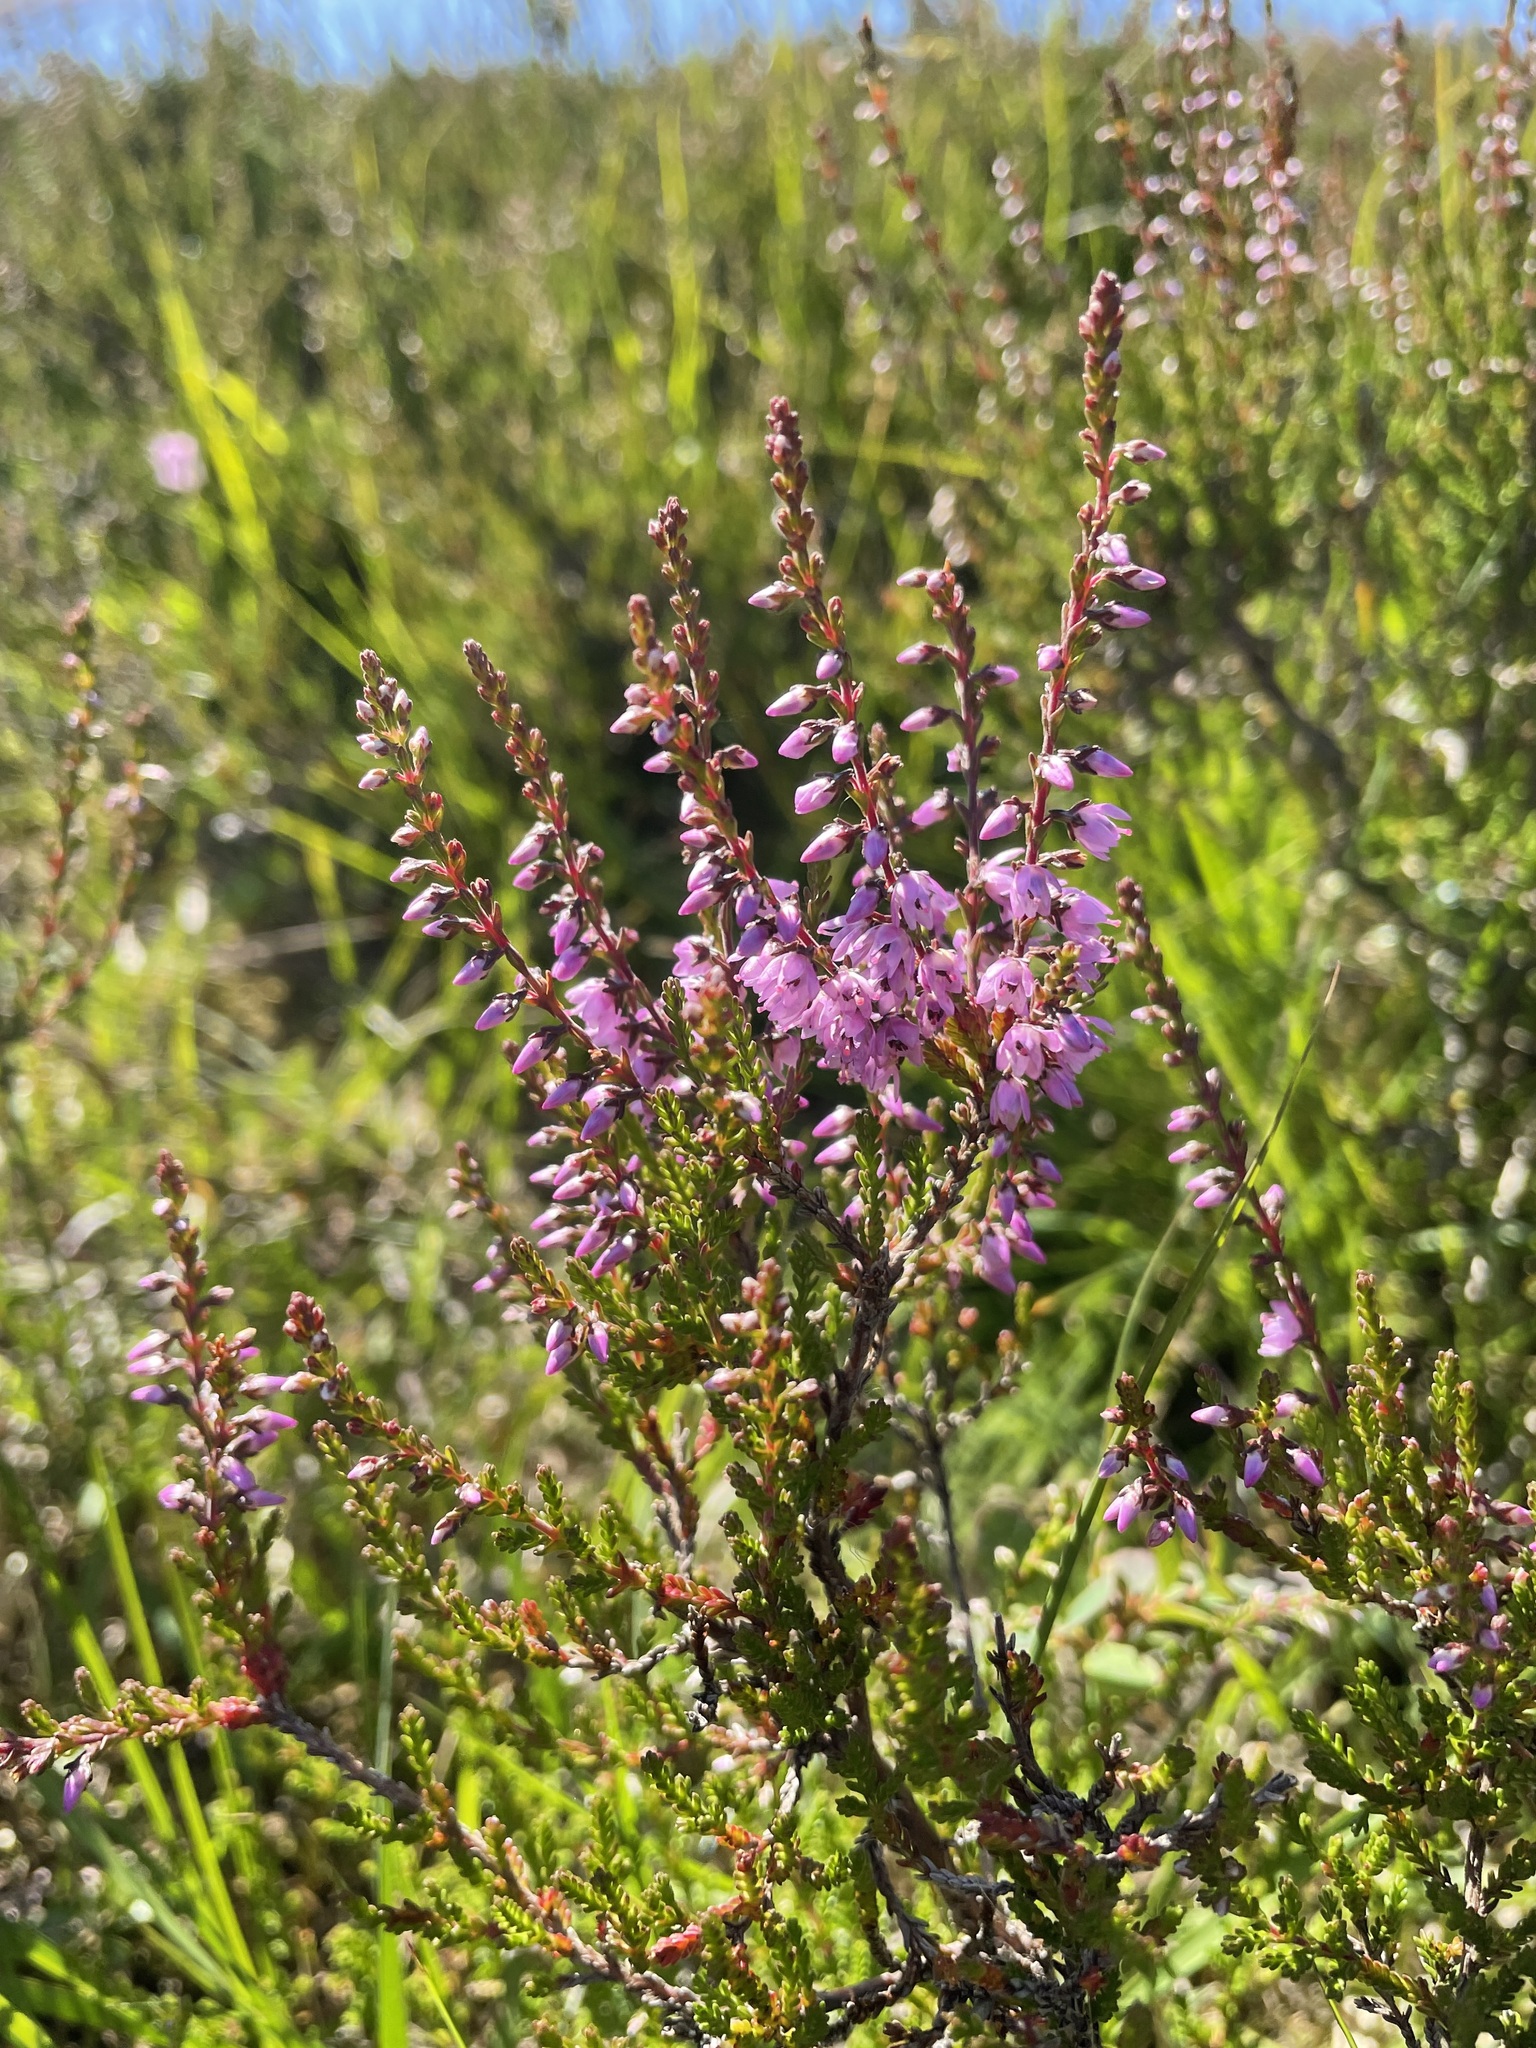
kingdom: Plantae
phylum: Tracheophyta
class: Magnoliopsida
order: Ericales
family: Ericaceae
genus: Calluna
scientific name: Calluna vulgaris
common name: Heather
